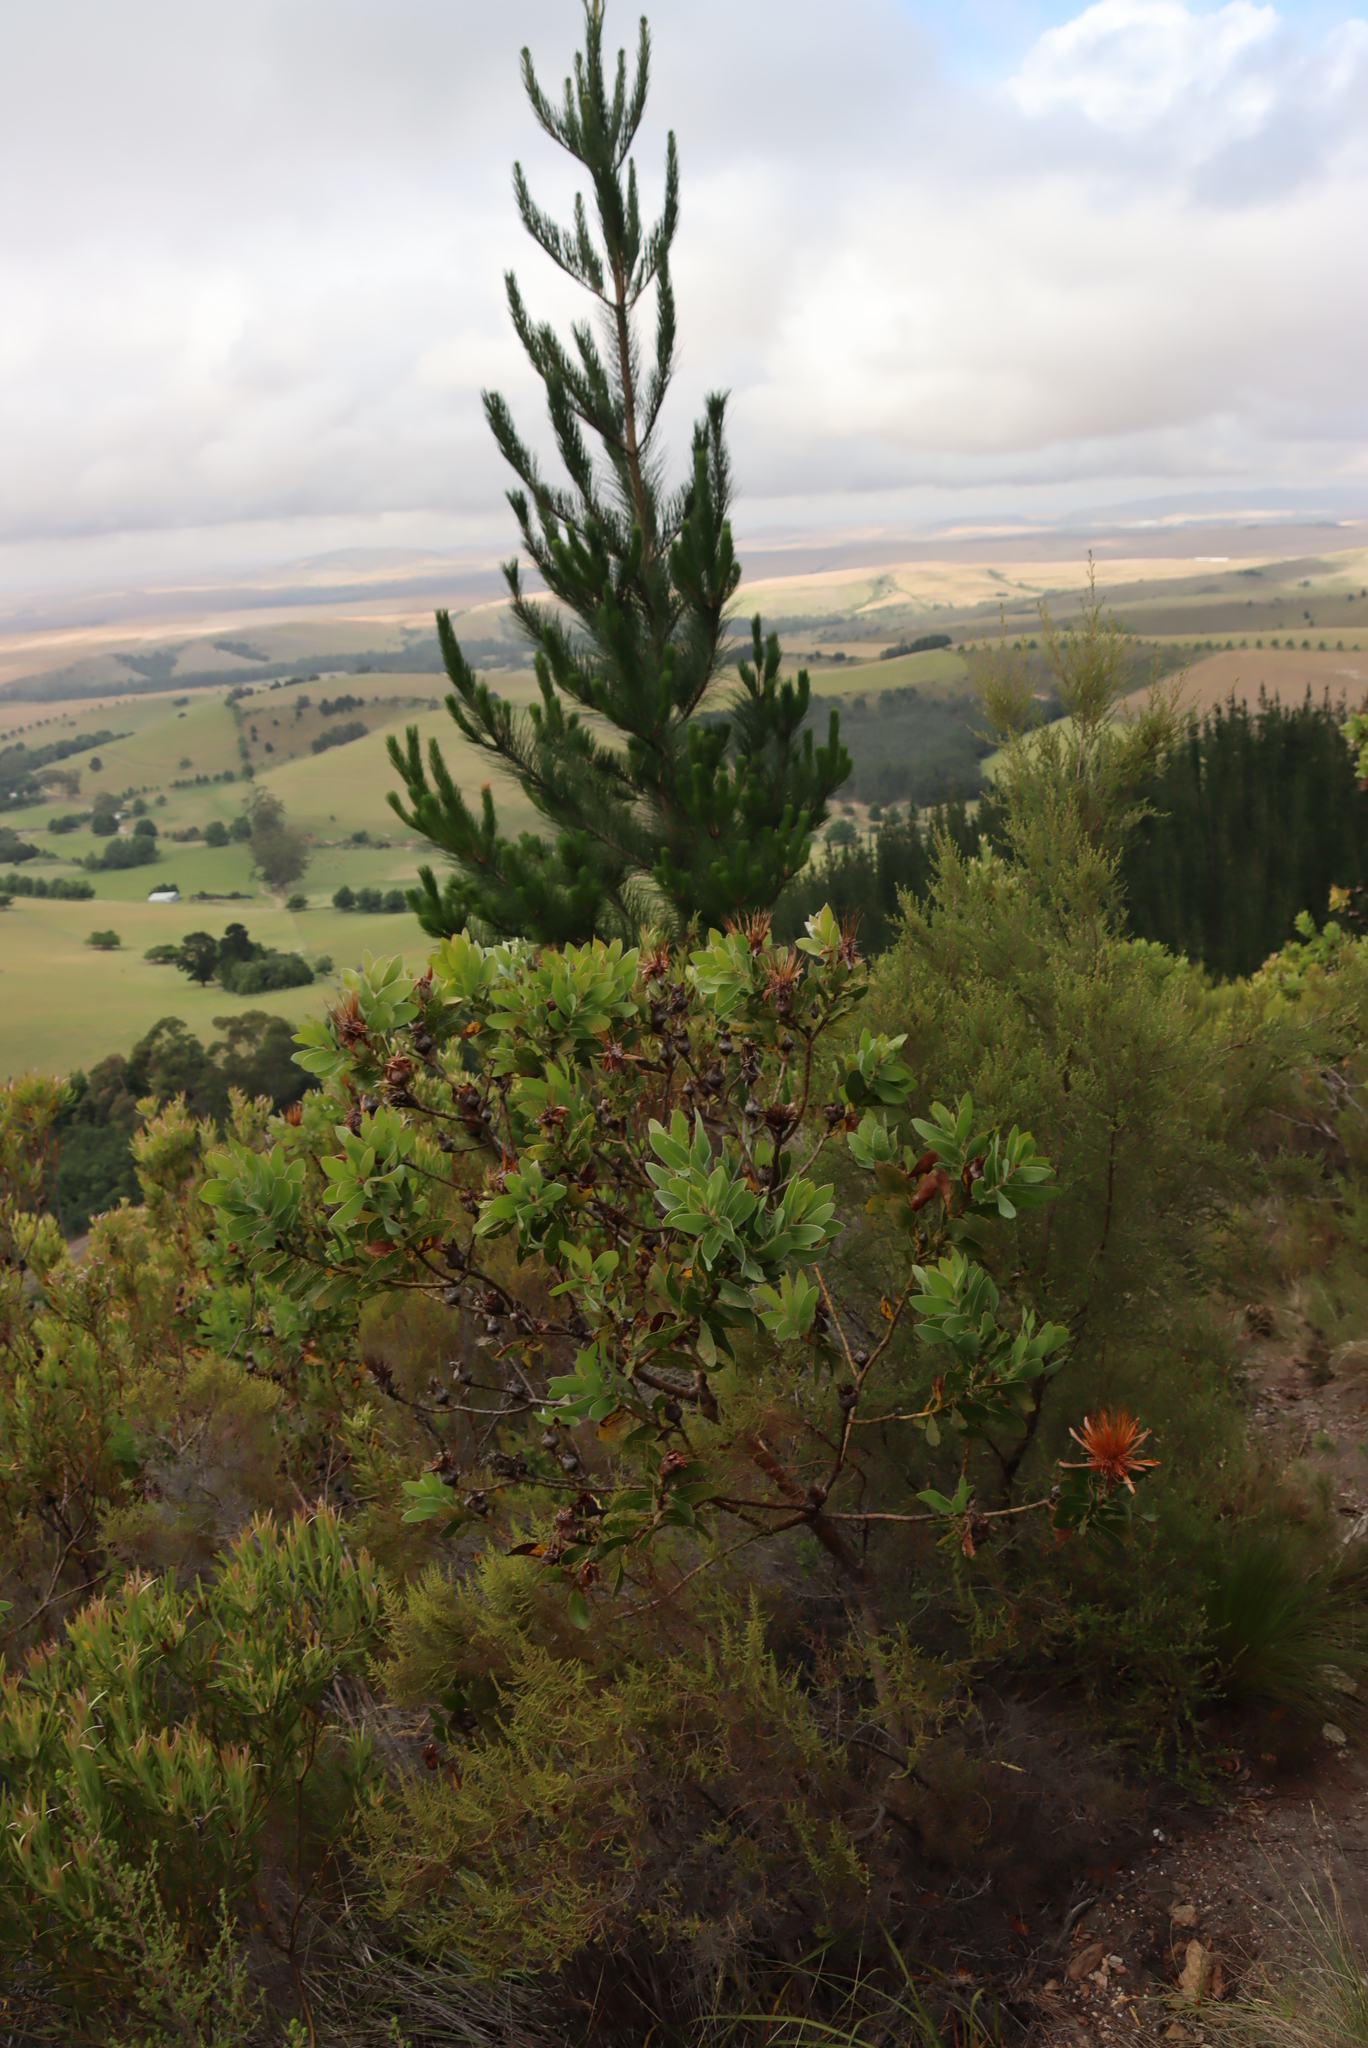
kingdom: Plantae
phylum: Tracheophyta
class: Pinopsida
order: Pinales
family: Pinaceae
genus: Pinus
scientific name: Pinus radiata
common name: Monterey pine
